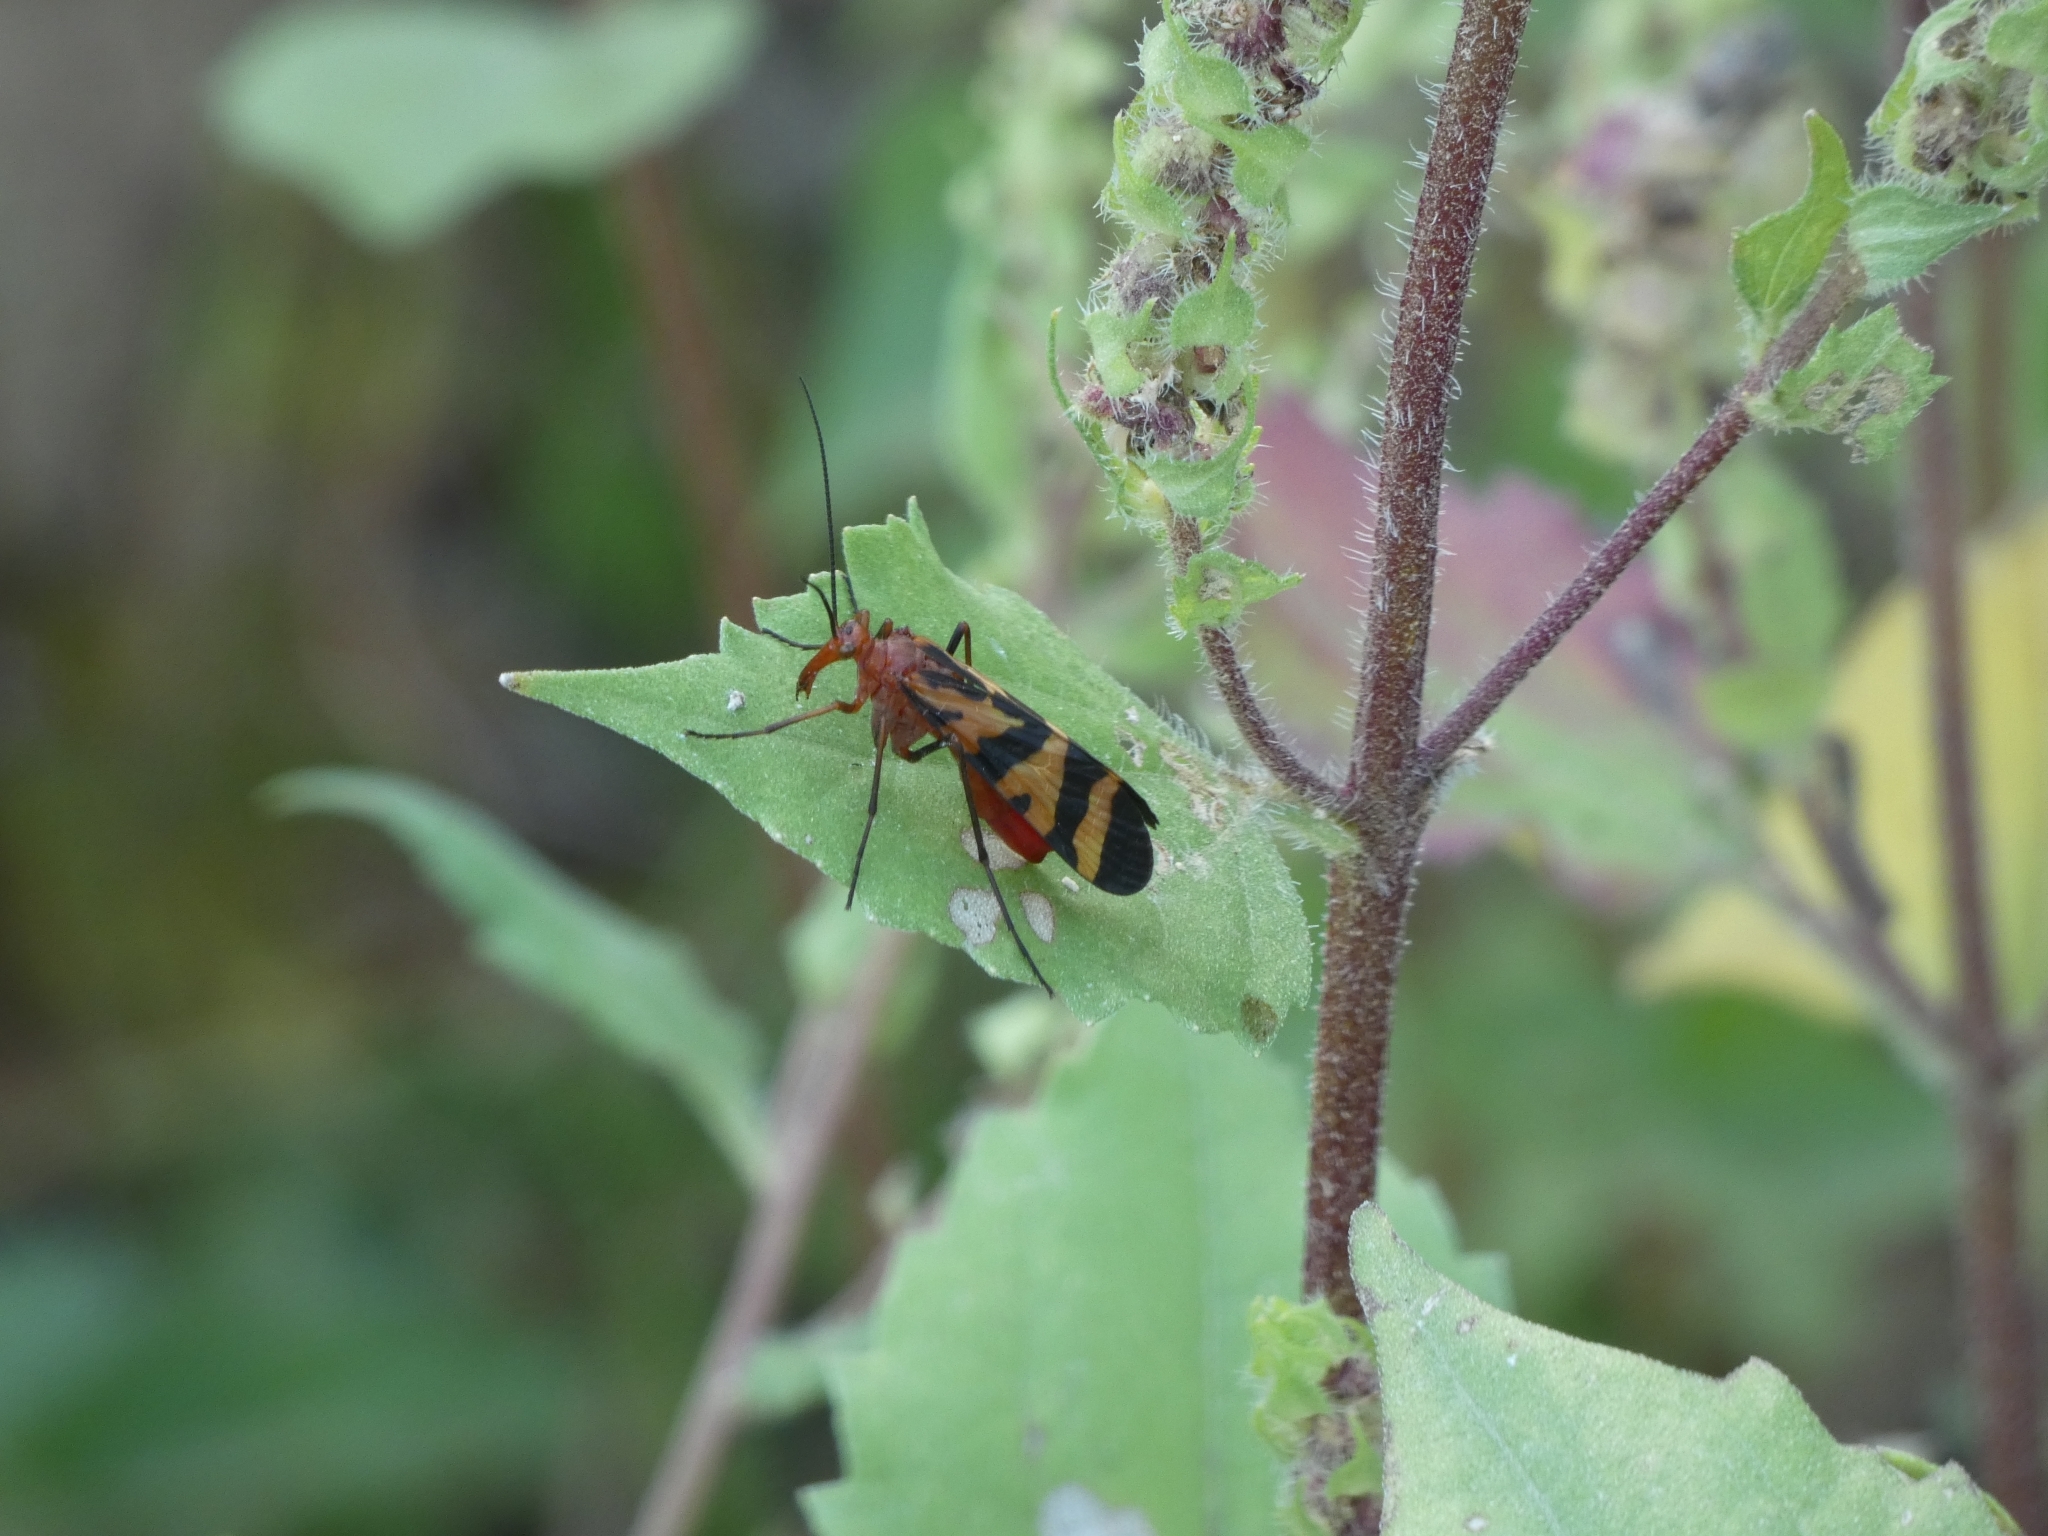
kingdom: Animalia
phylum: Arthropoda
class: Insecta
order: Mecoptera
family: Panorpidae
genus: Panorpa
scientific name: Panorpa nuptialis
